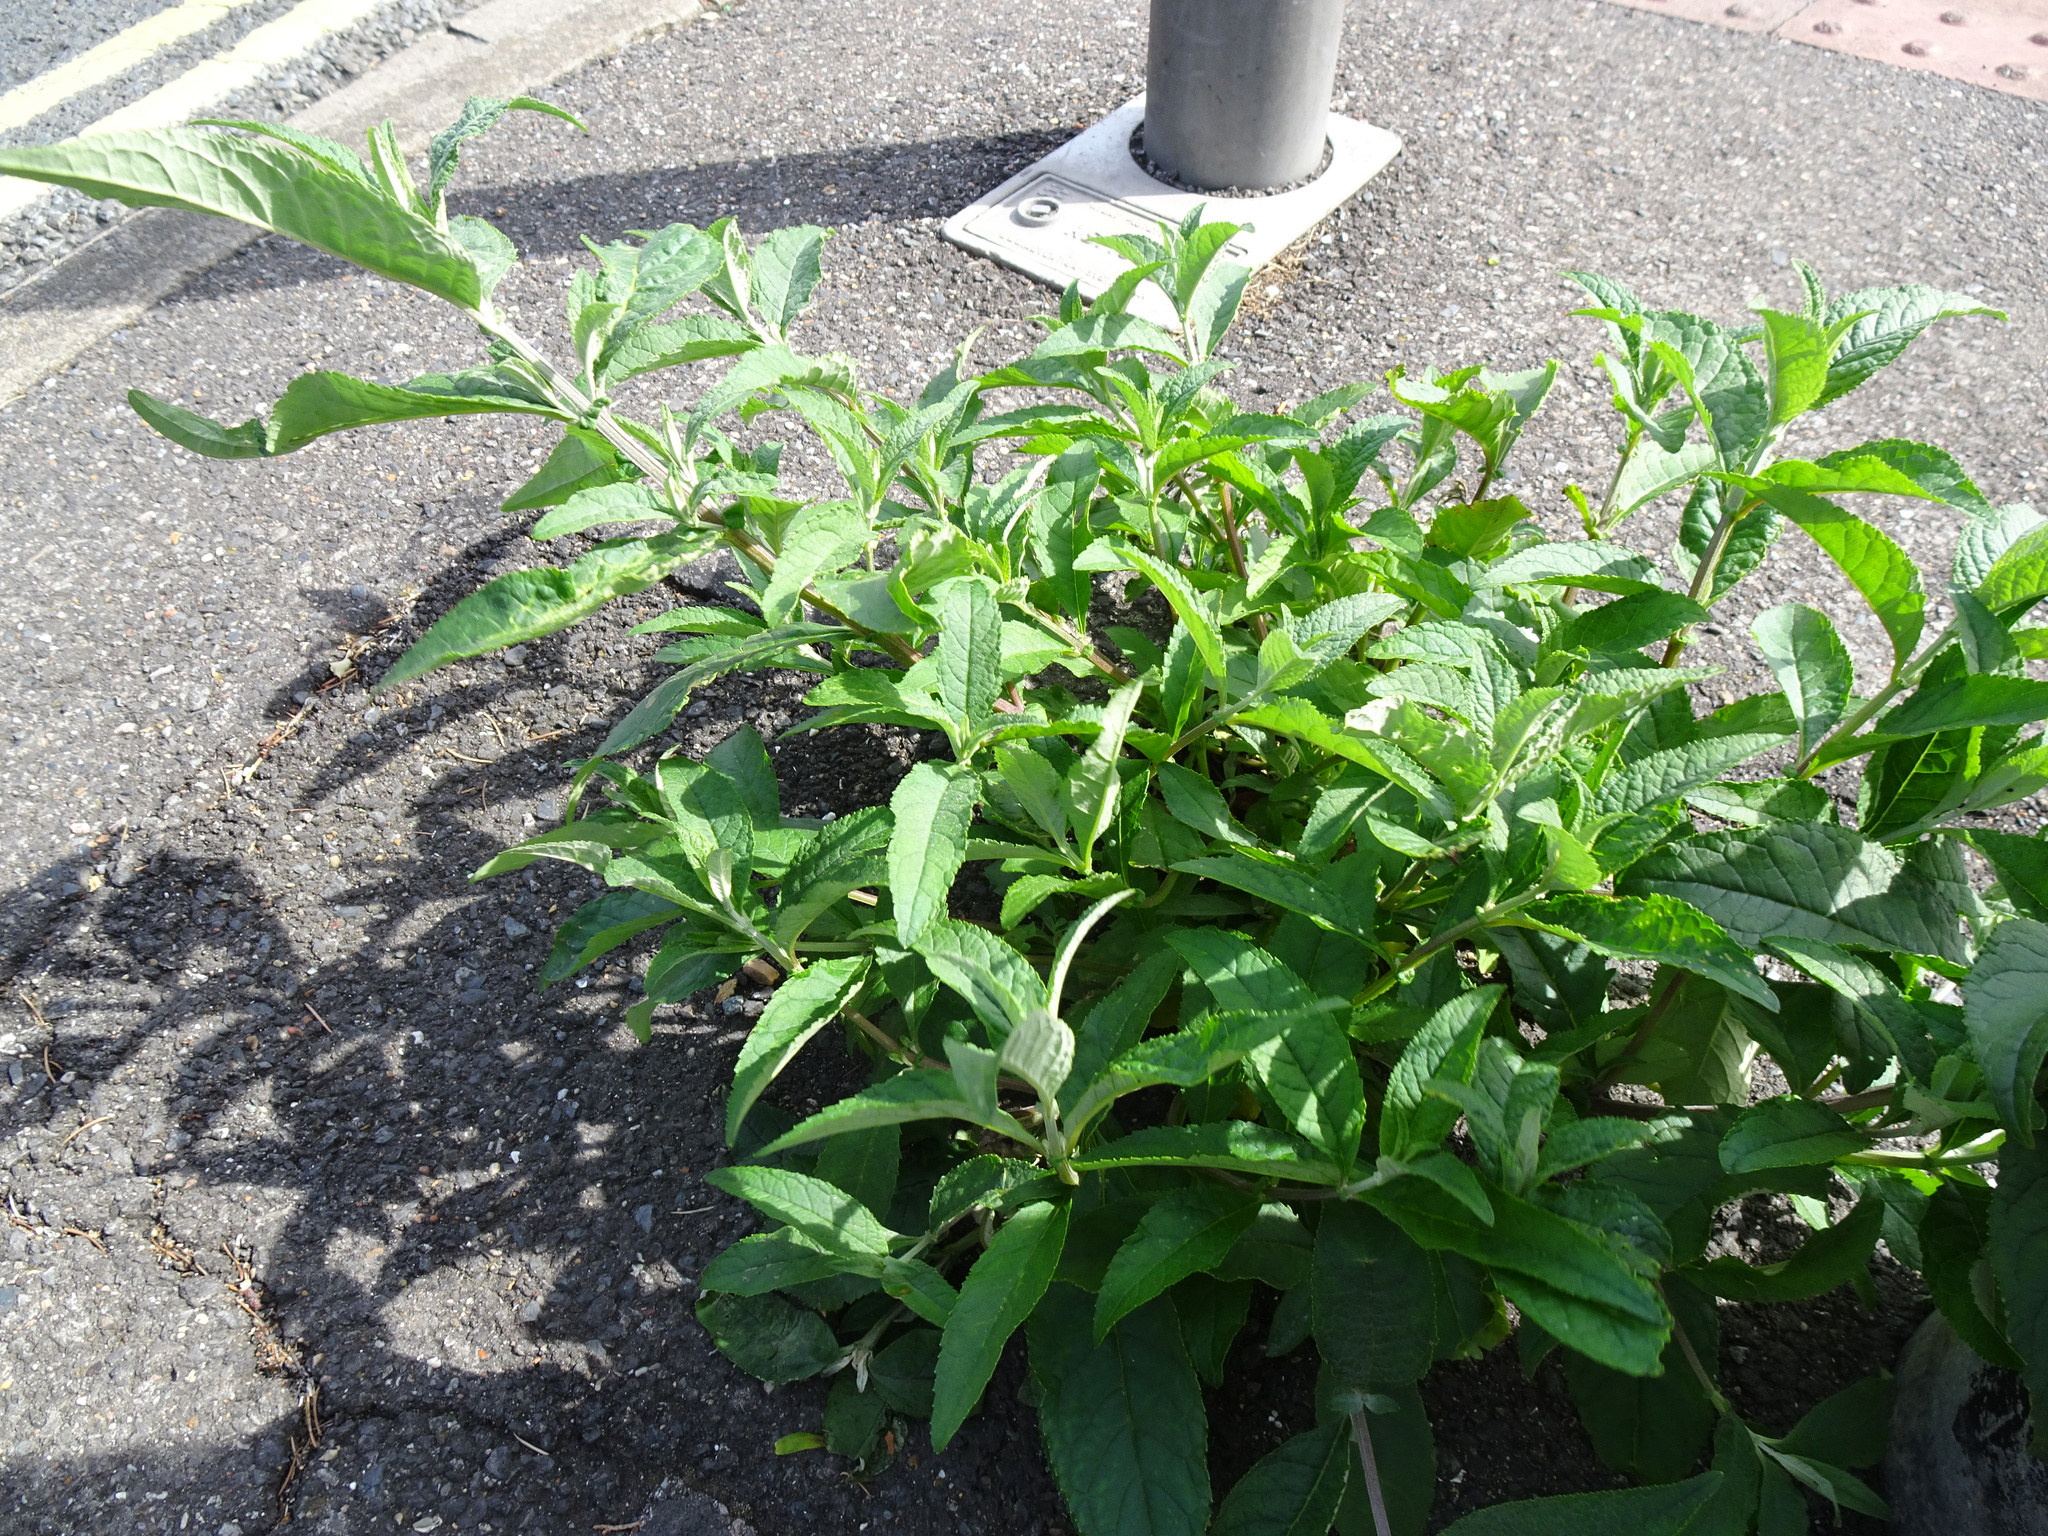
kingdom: Plantae
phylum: Tracheophyta
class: Magnoliopsida
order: Lamiales
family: Scrophulariaceae
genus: Buddleja
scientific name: Buddleja davidii
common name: Butterfly-bush
